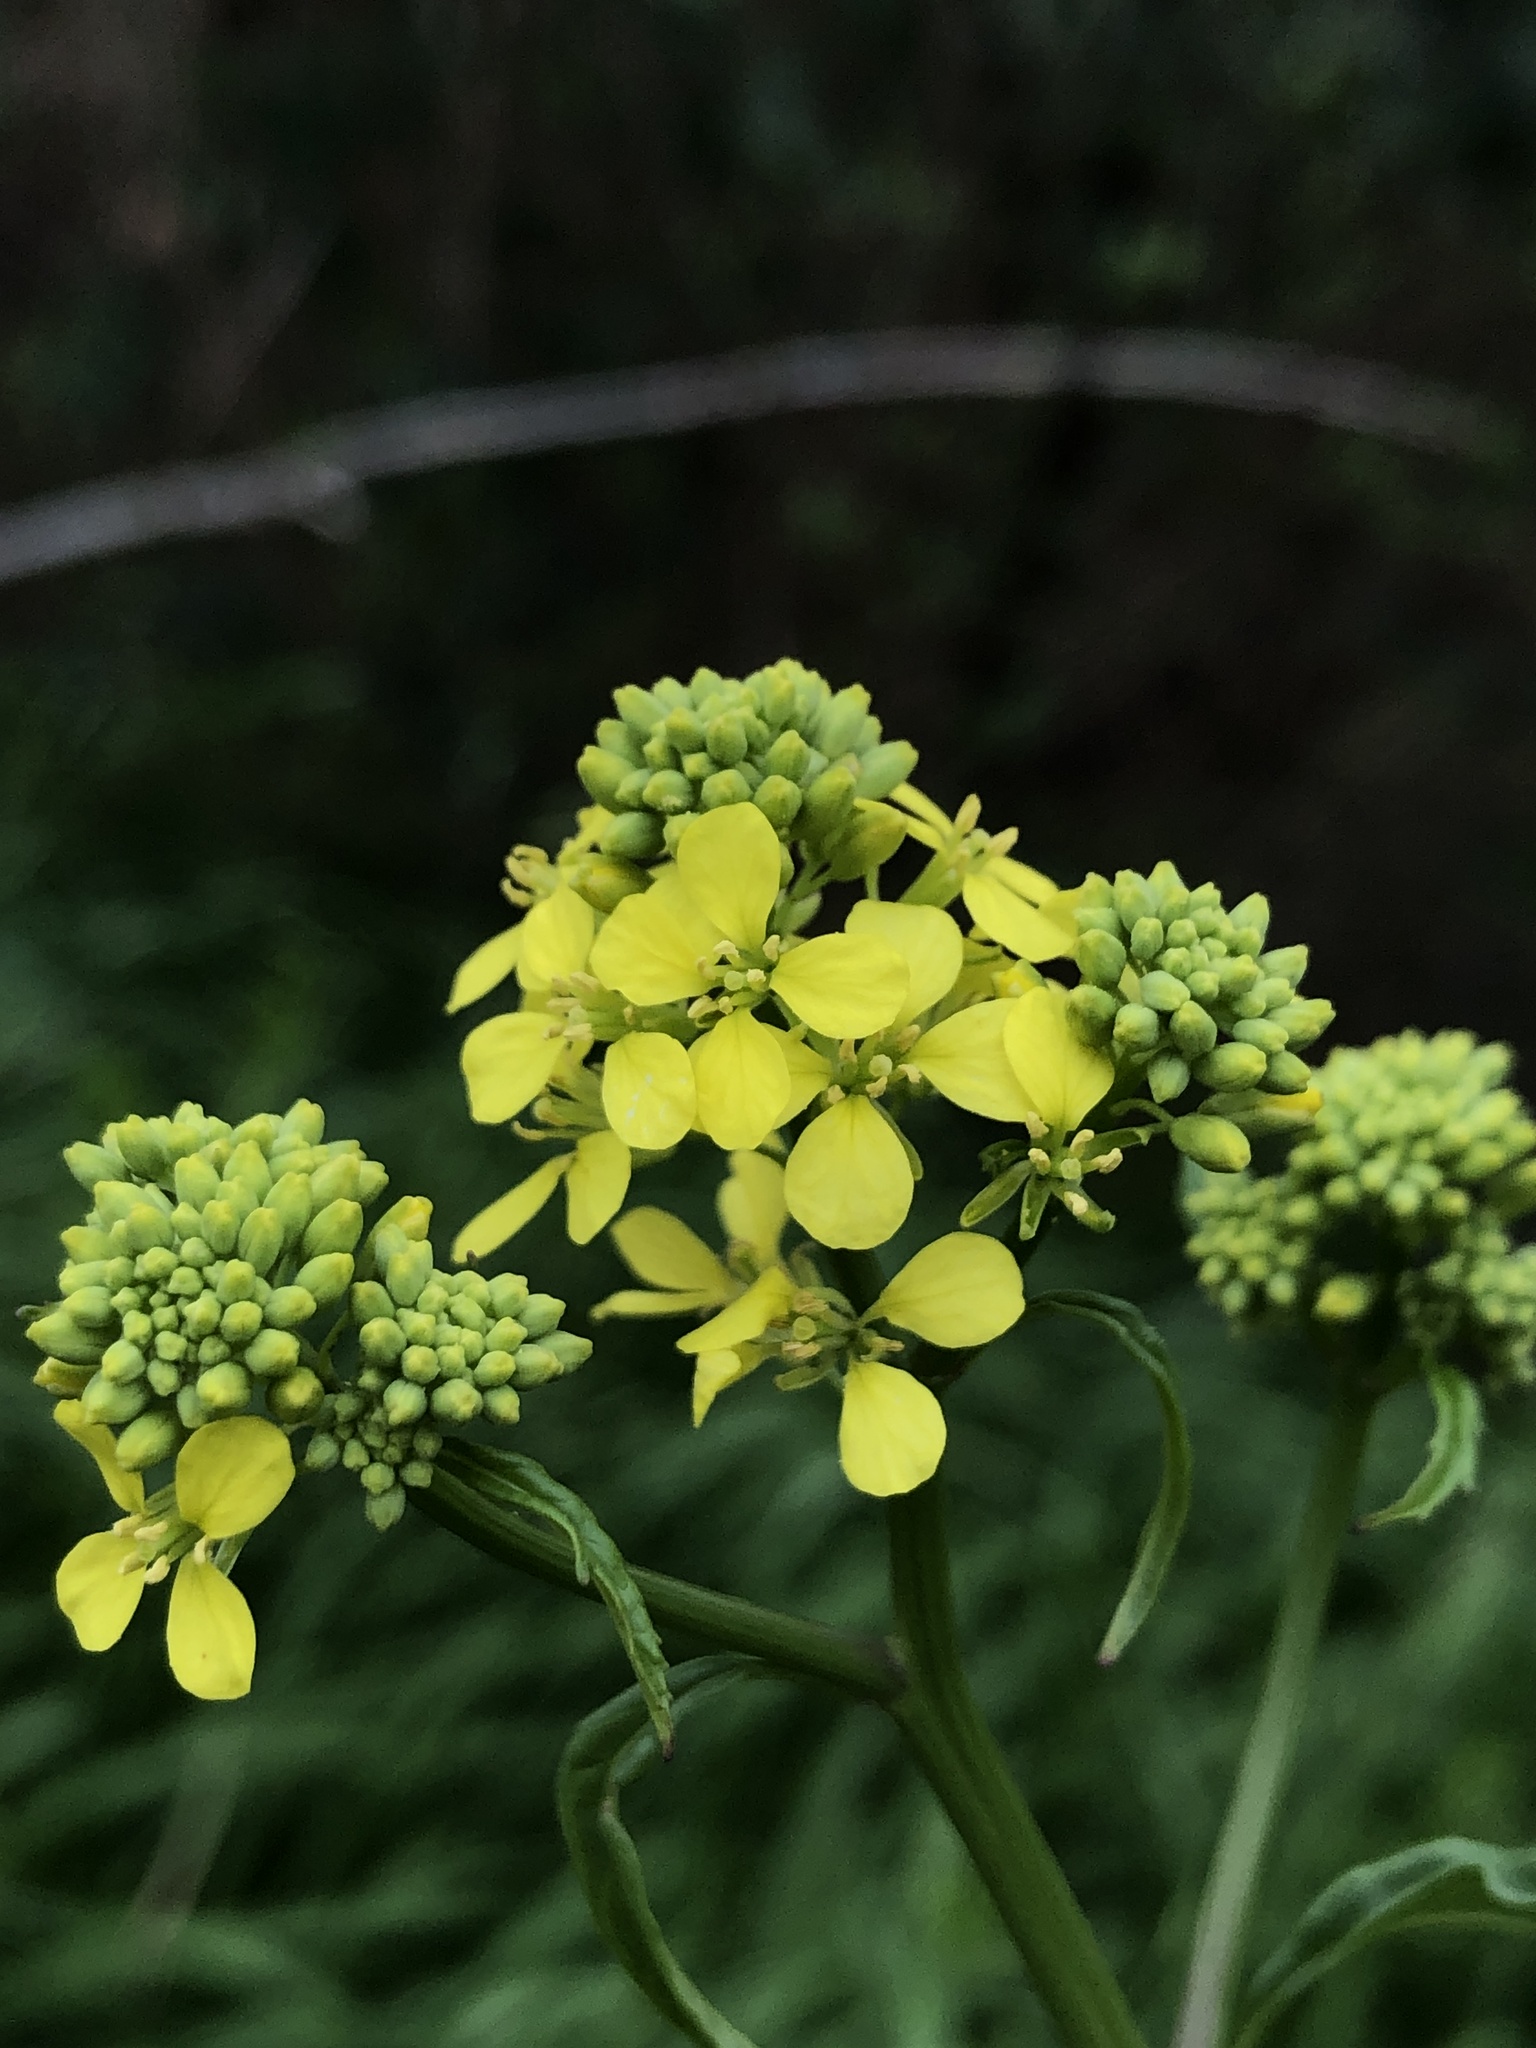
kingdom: Plantae
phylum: Tracheophyta
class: Magnoliopsida
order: Brassicales
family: Brassicaceae
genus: Rapistrum
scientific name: Rapistrum rugosum
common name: Annual bastardcabbage
